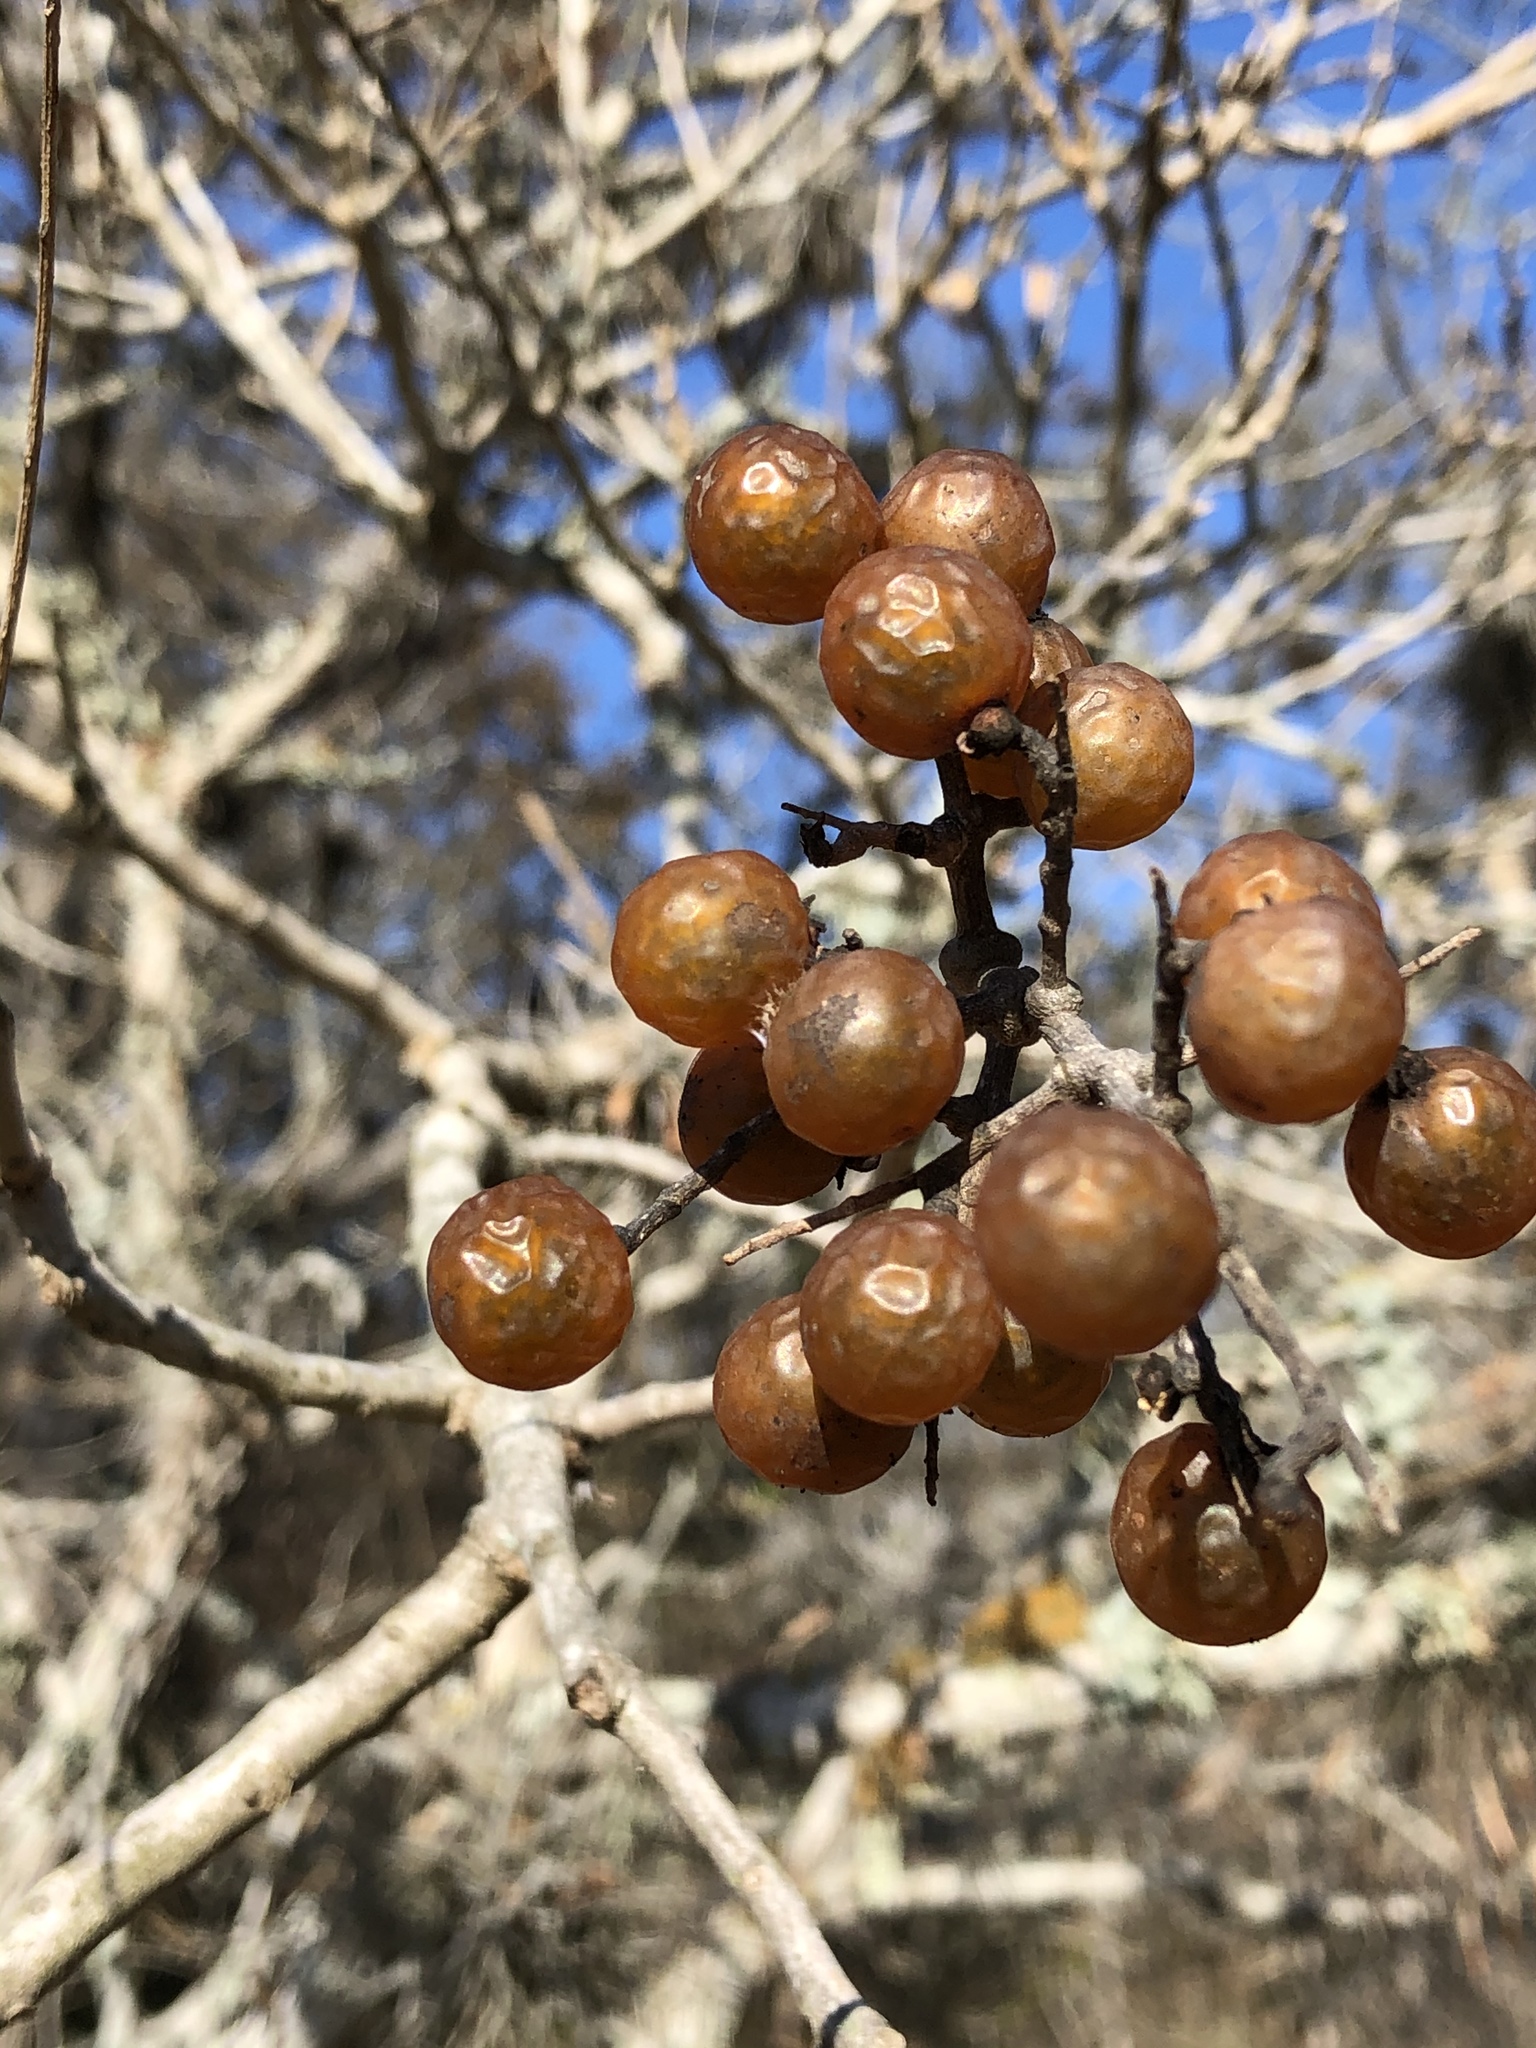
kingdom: Plantae
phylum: Tracheophyta
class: Magnoliopsida
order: Sapindales
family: Sapindaceae
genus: Sapindus
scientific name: Sapindus drummondii
